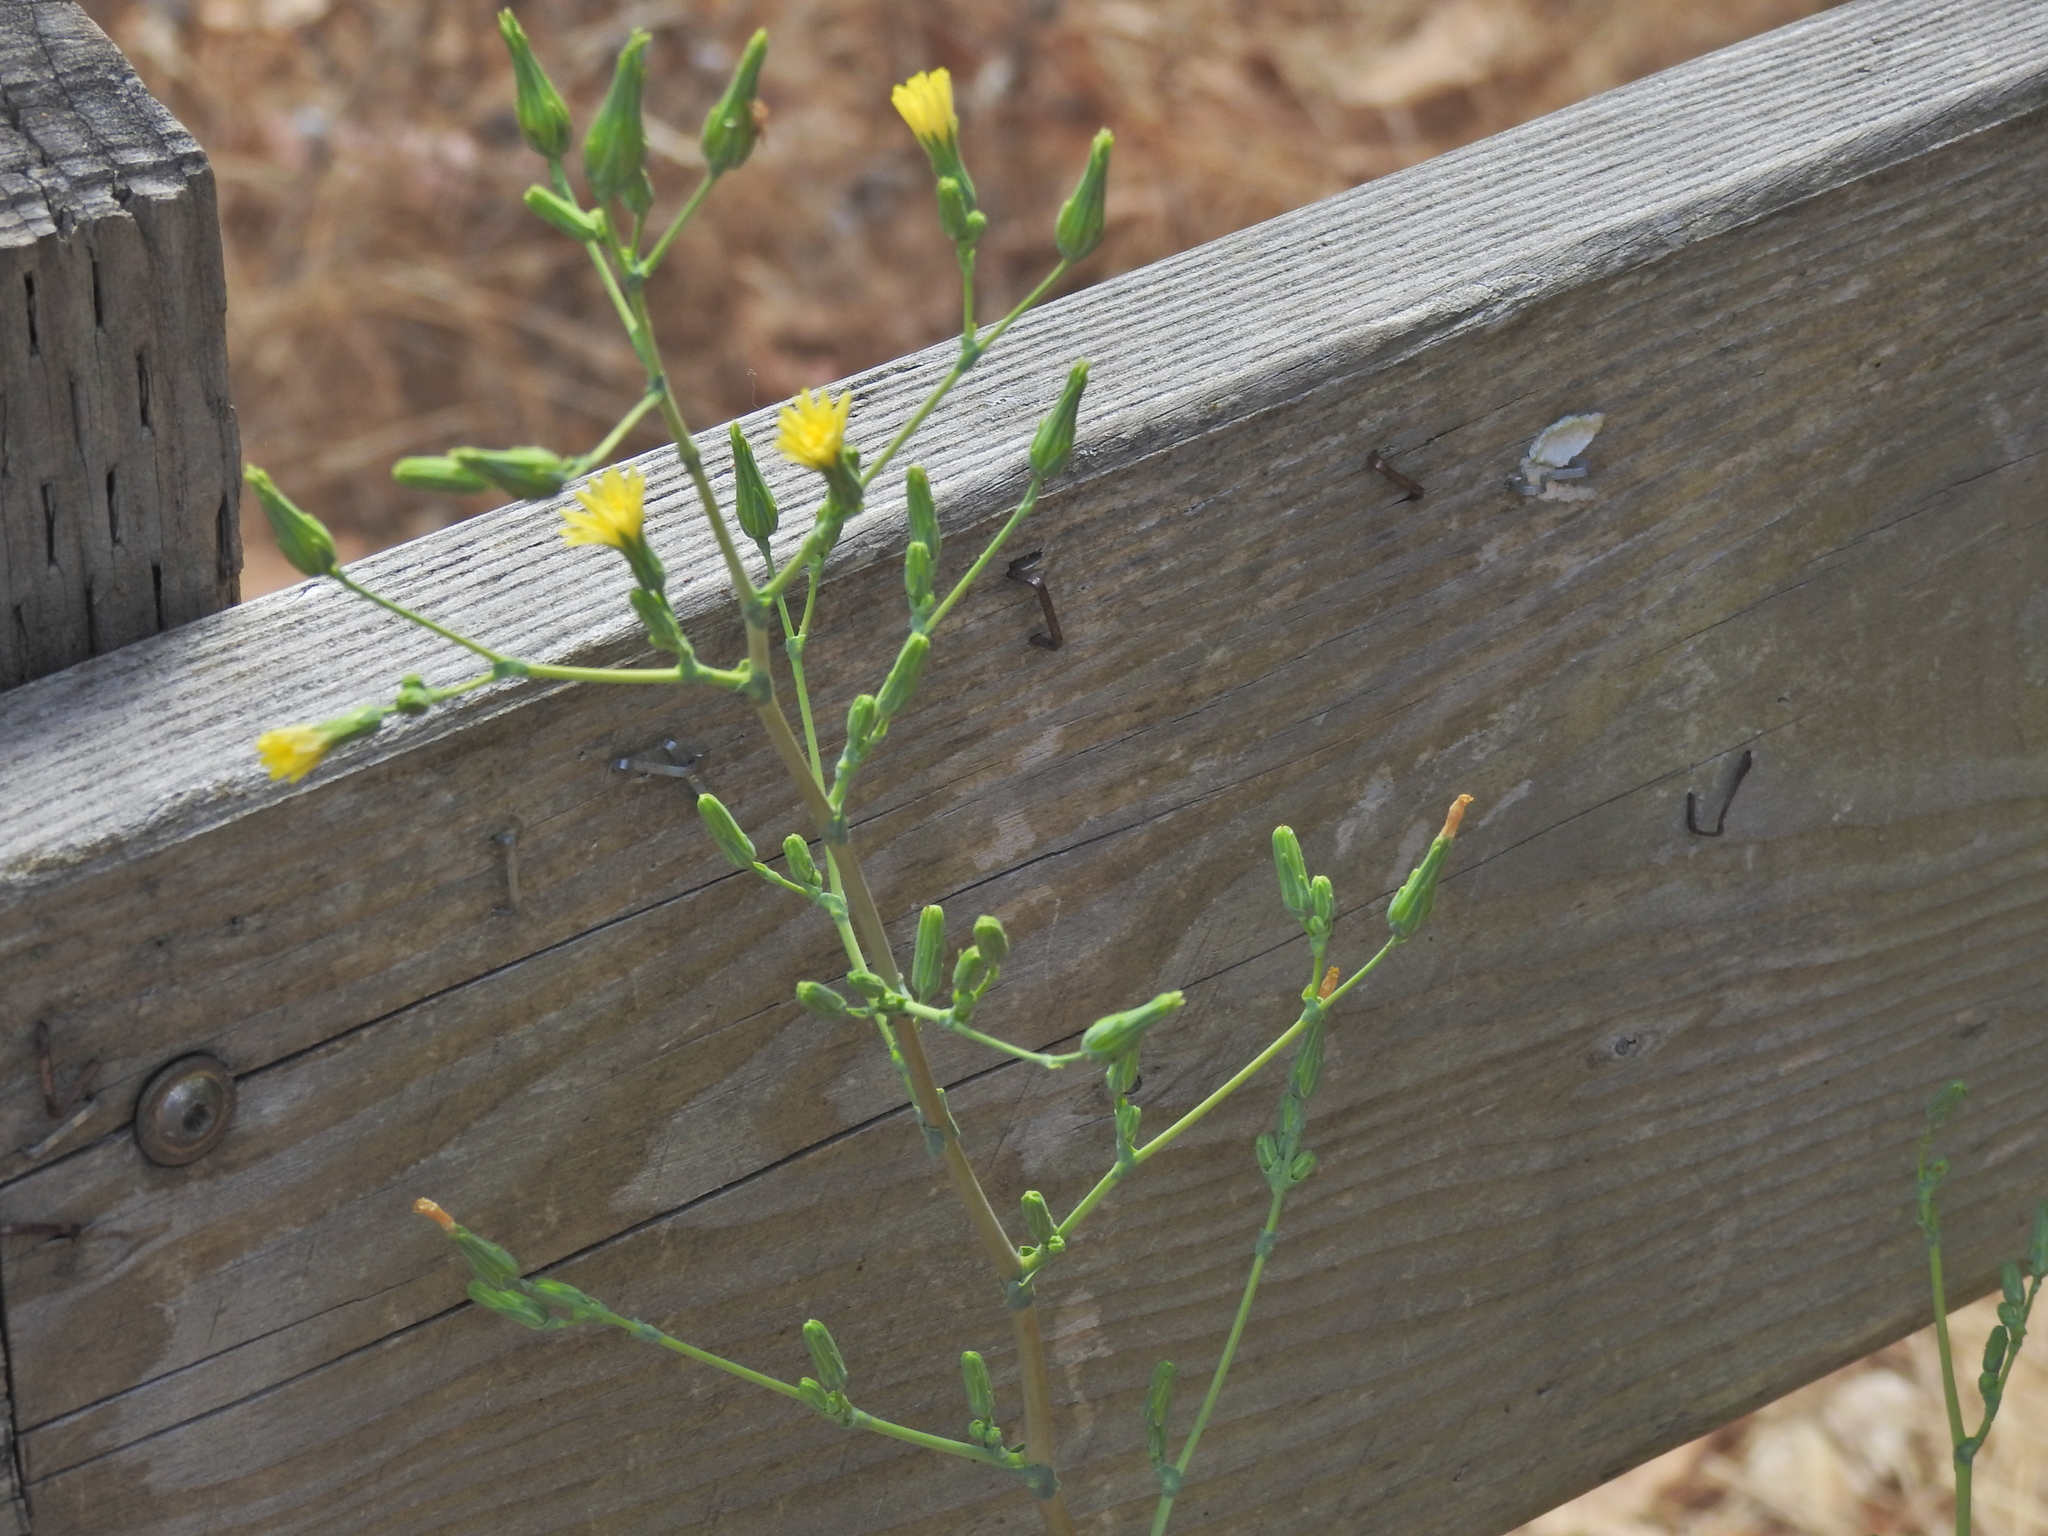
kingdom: Plantae
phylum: Tracheophyta
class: Magnoliopsida
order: Asterales
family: Asteraceae
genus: Lactuca
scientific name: Lactuca serriola
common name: Prickly lettuce
